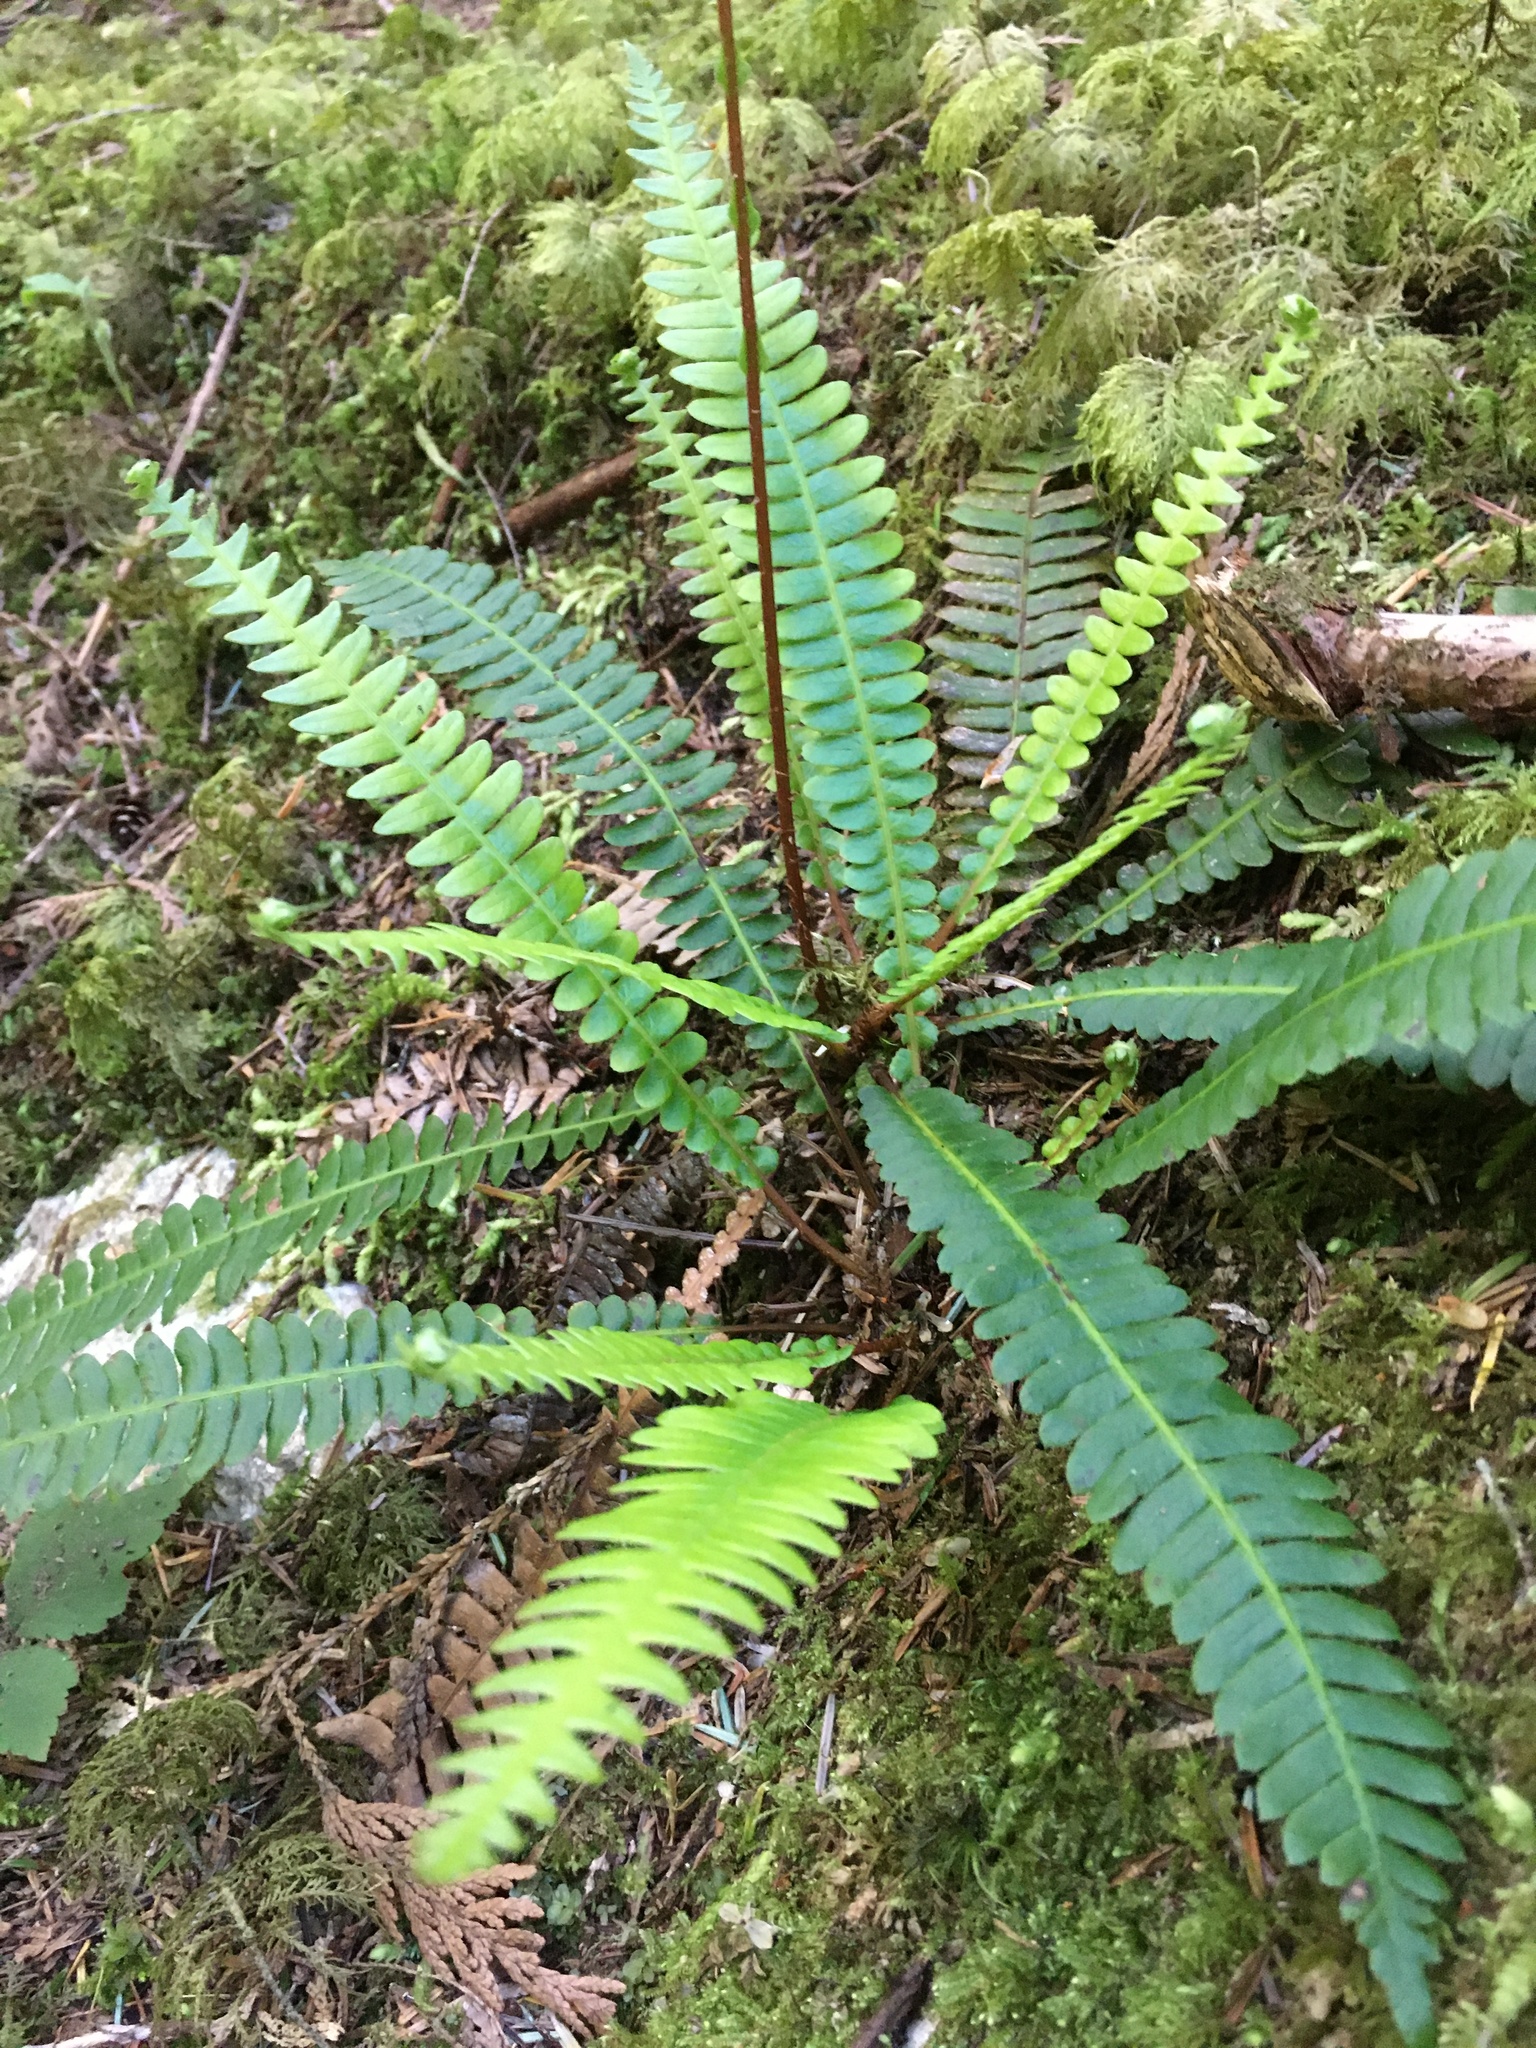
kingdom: Plantae
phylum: Tracheophyta
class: Polypodiopsida
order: Polypodiales
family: Blechnaceae
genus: Struthiopteris
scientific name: Struthiopteris spicant
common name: Deer fern
